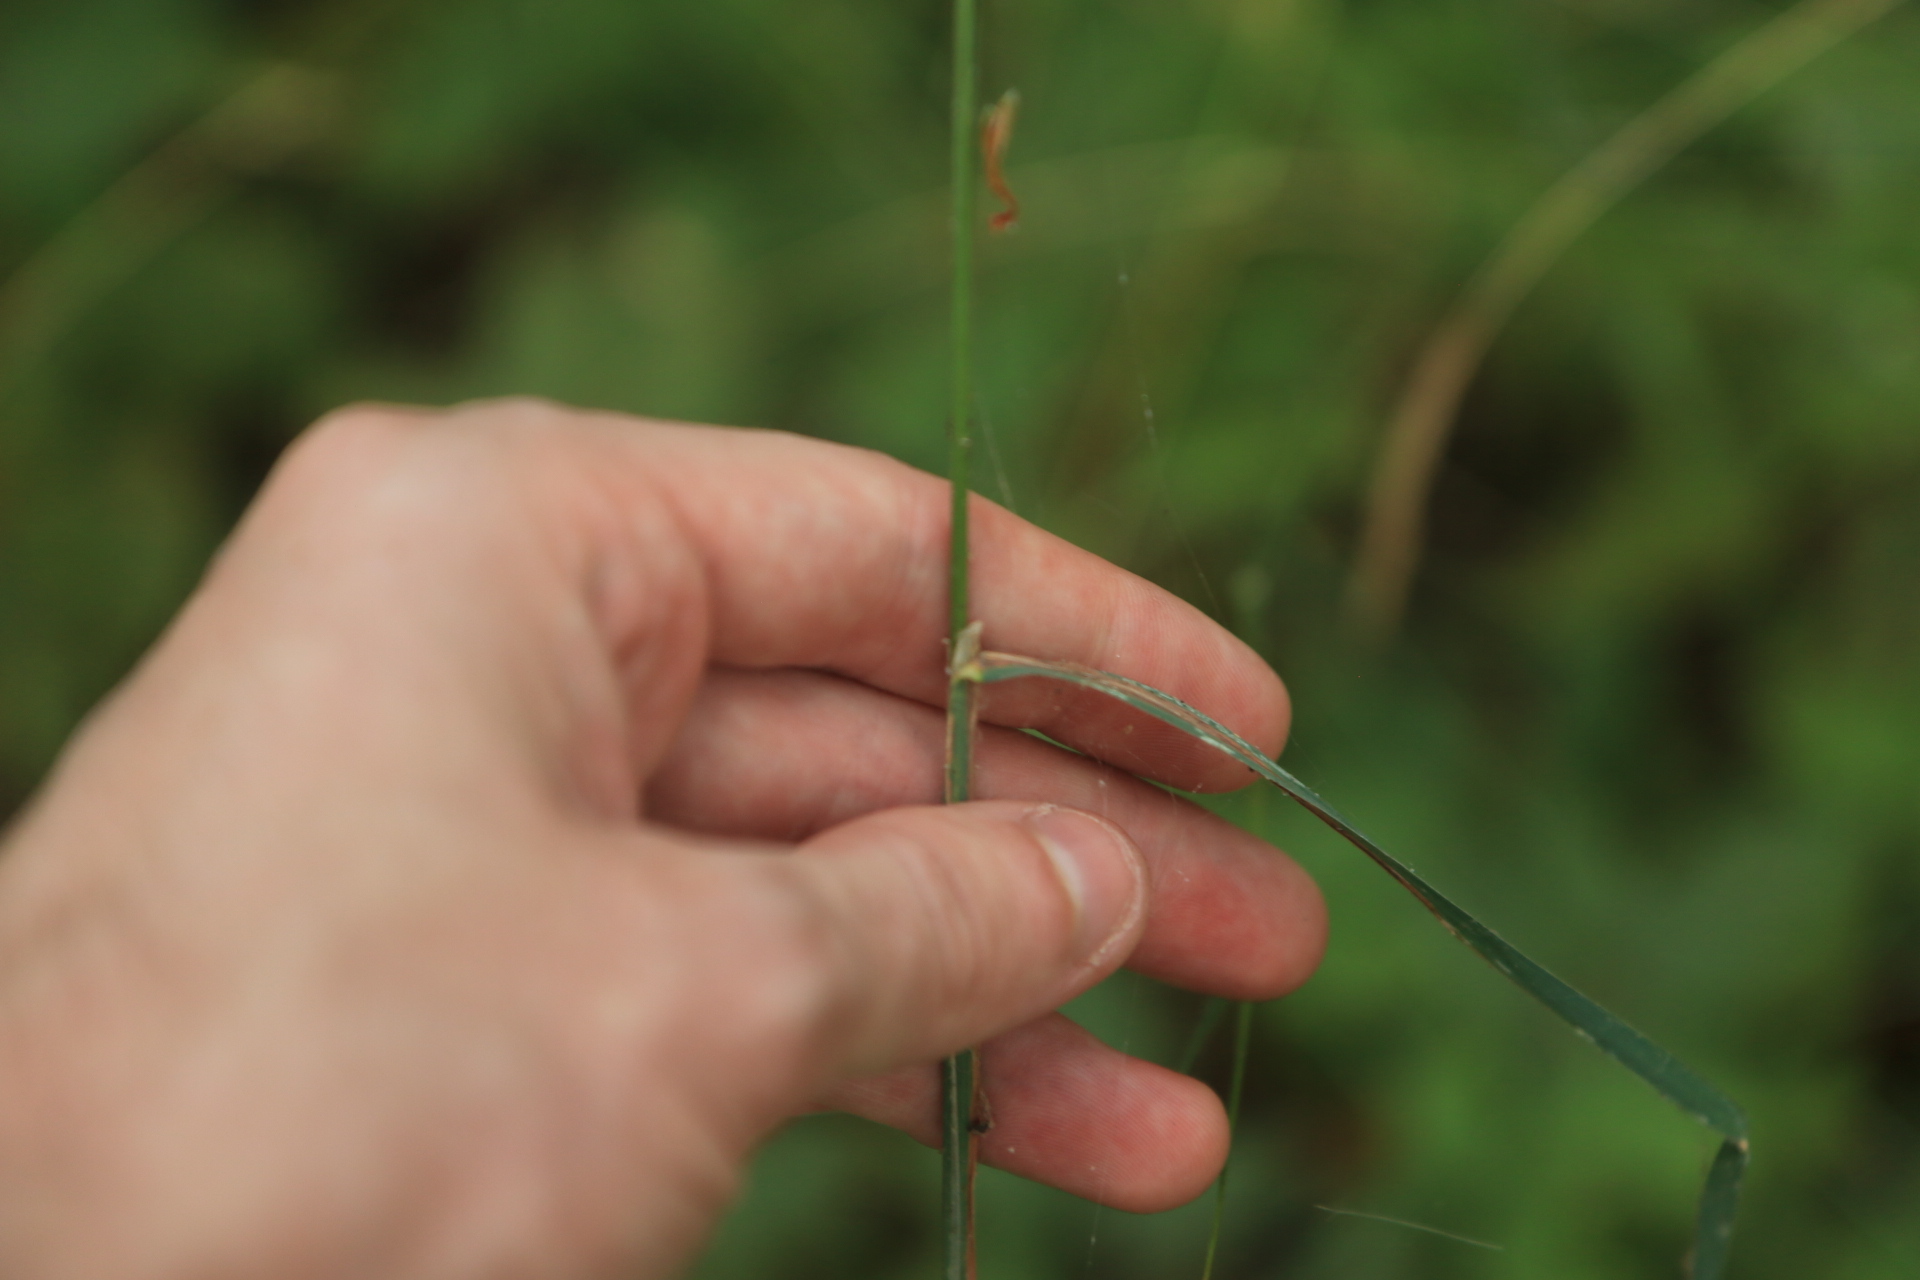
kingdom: Plantae
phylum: Tracheophyta
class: Liliopsida
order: Poales
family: Poaceae
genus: Dactylis
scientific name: Dactylis glomerata
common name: Orchardgrass
